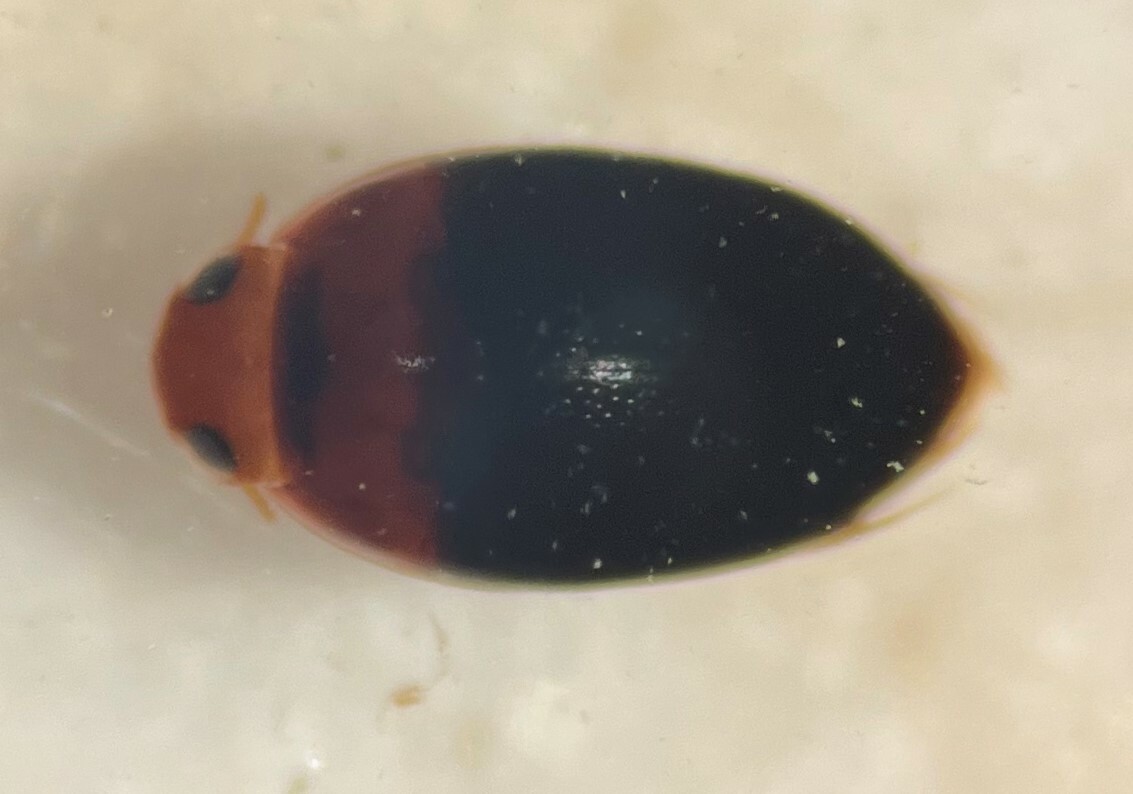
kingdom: Animalia
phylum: Arthropoda
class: Insecta
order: Coleoptera
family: Noteridae
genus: Suphisellus
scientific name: Suphisellus bicolor
